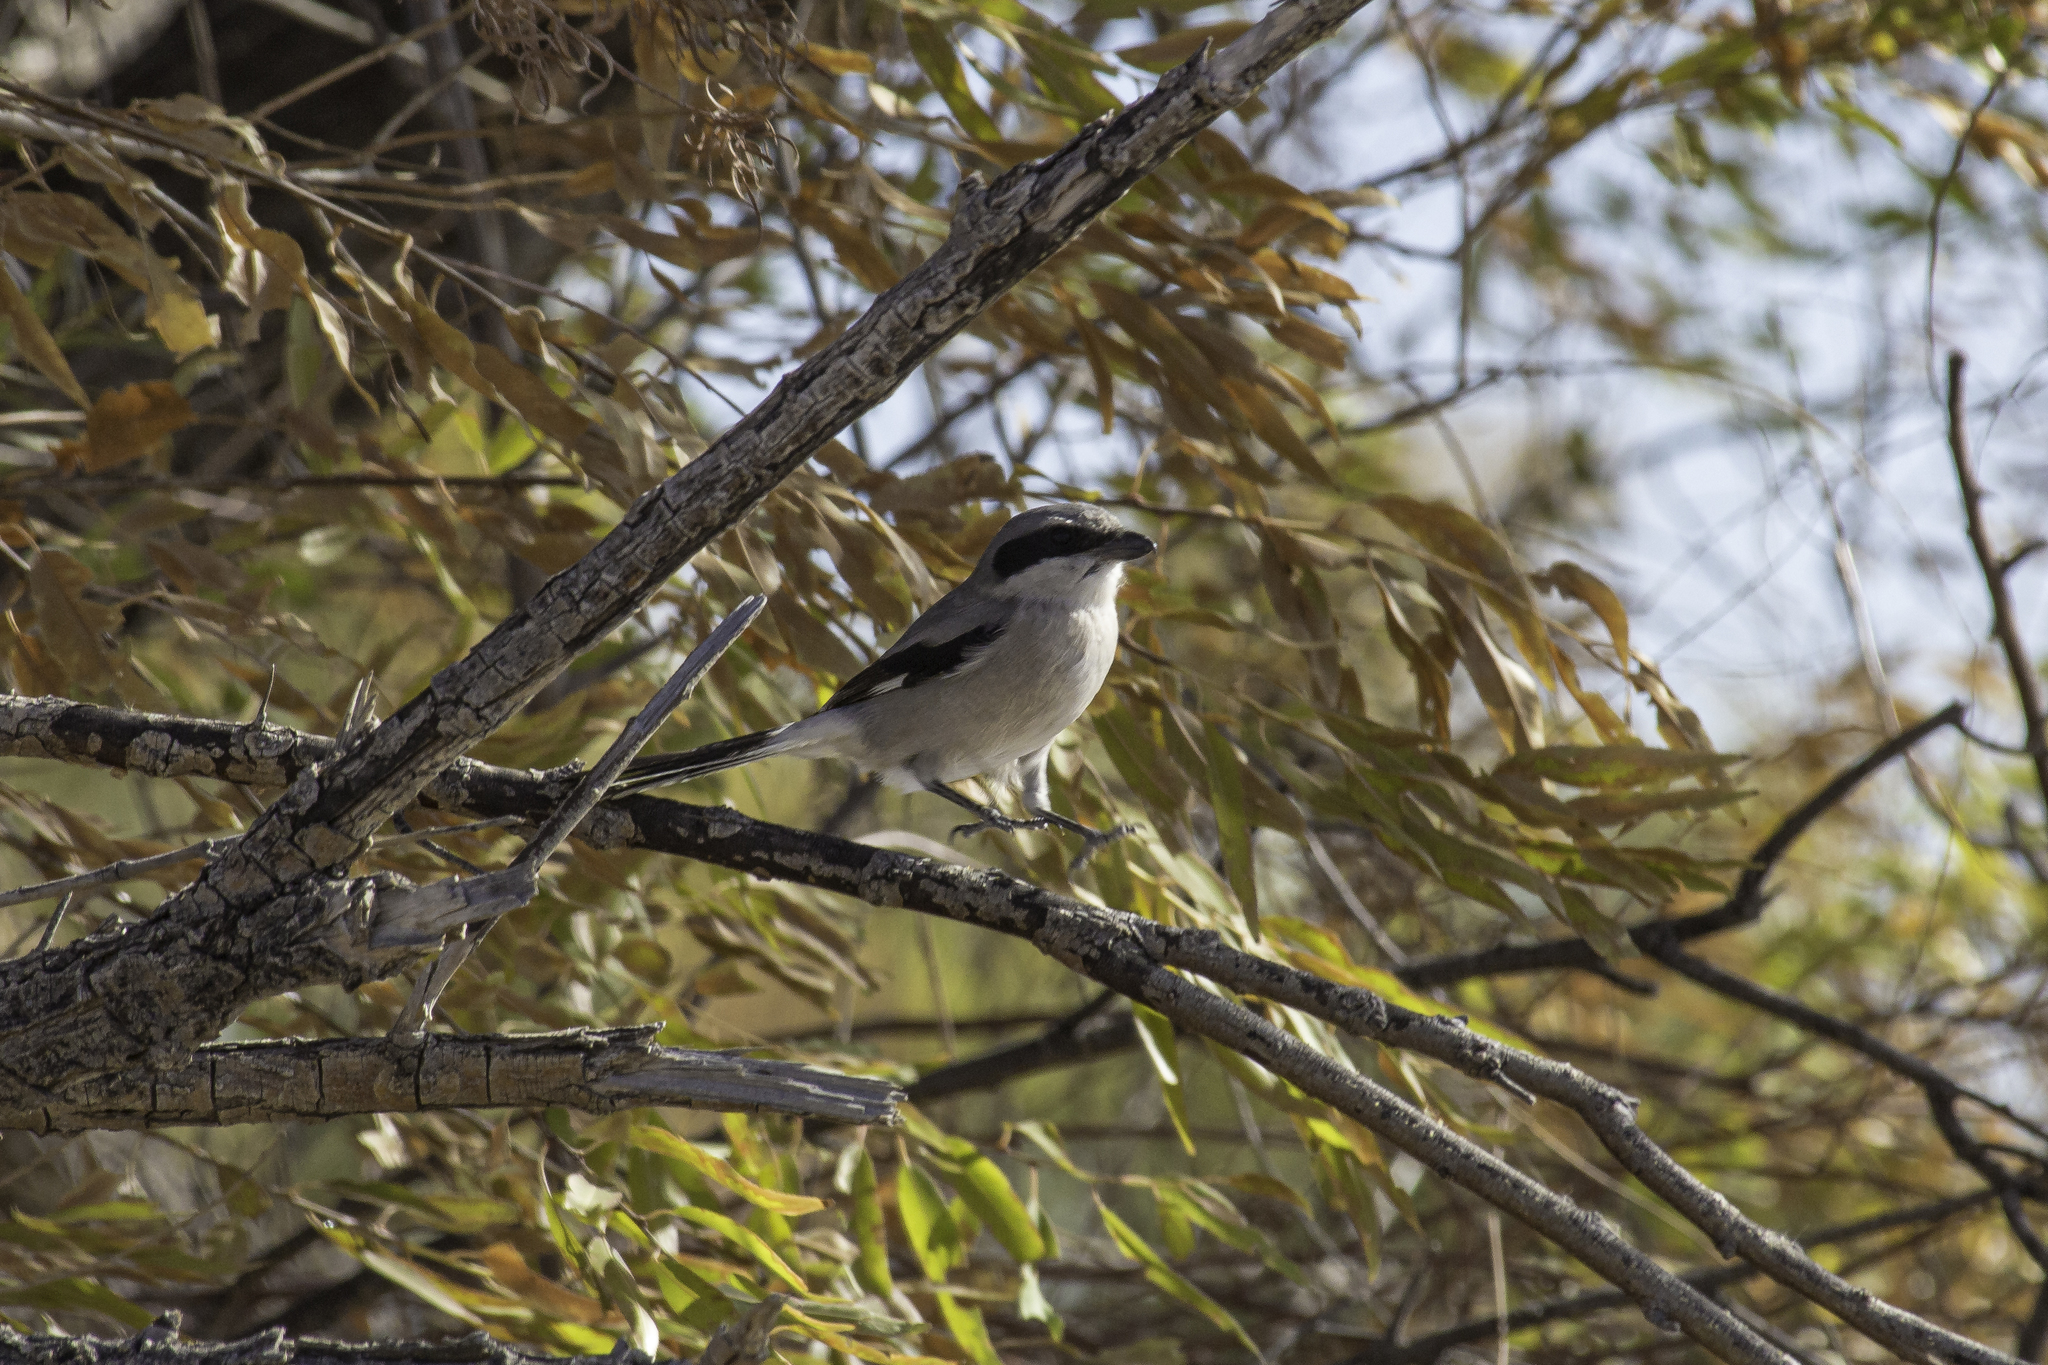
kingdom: Animalia
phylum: Chordata
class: Aves
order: Passeriformes
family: Laniidae
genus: Lanius
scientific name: Lanius ludovicianus
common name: Loggerhead shrike
